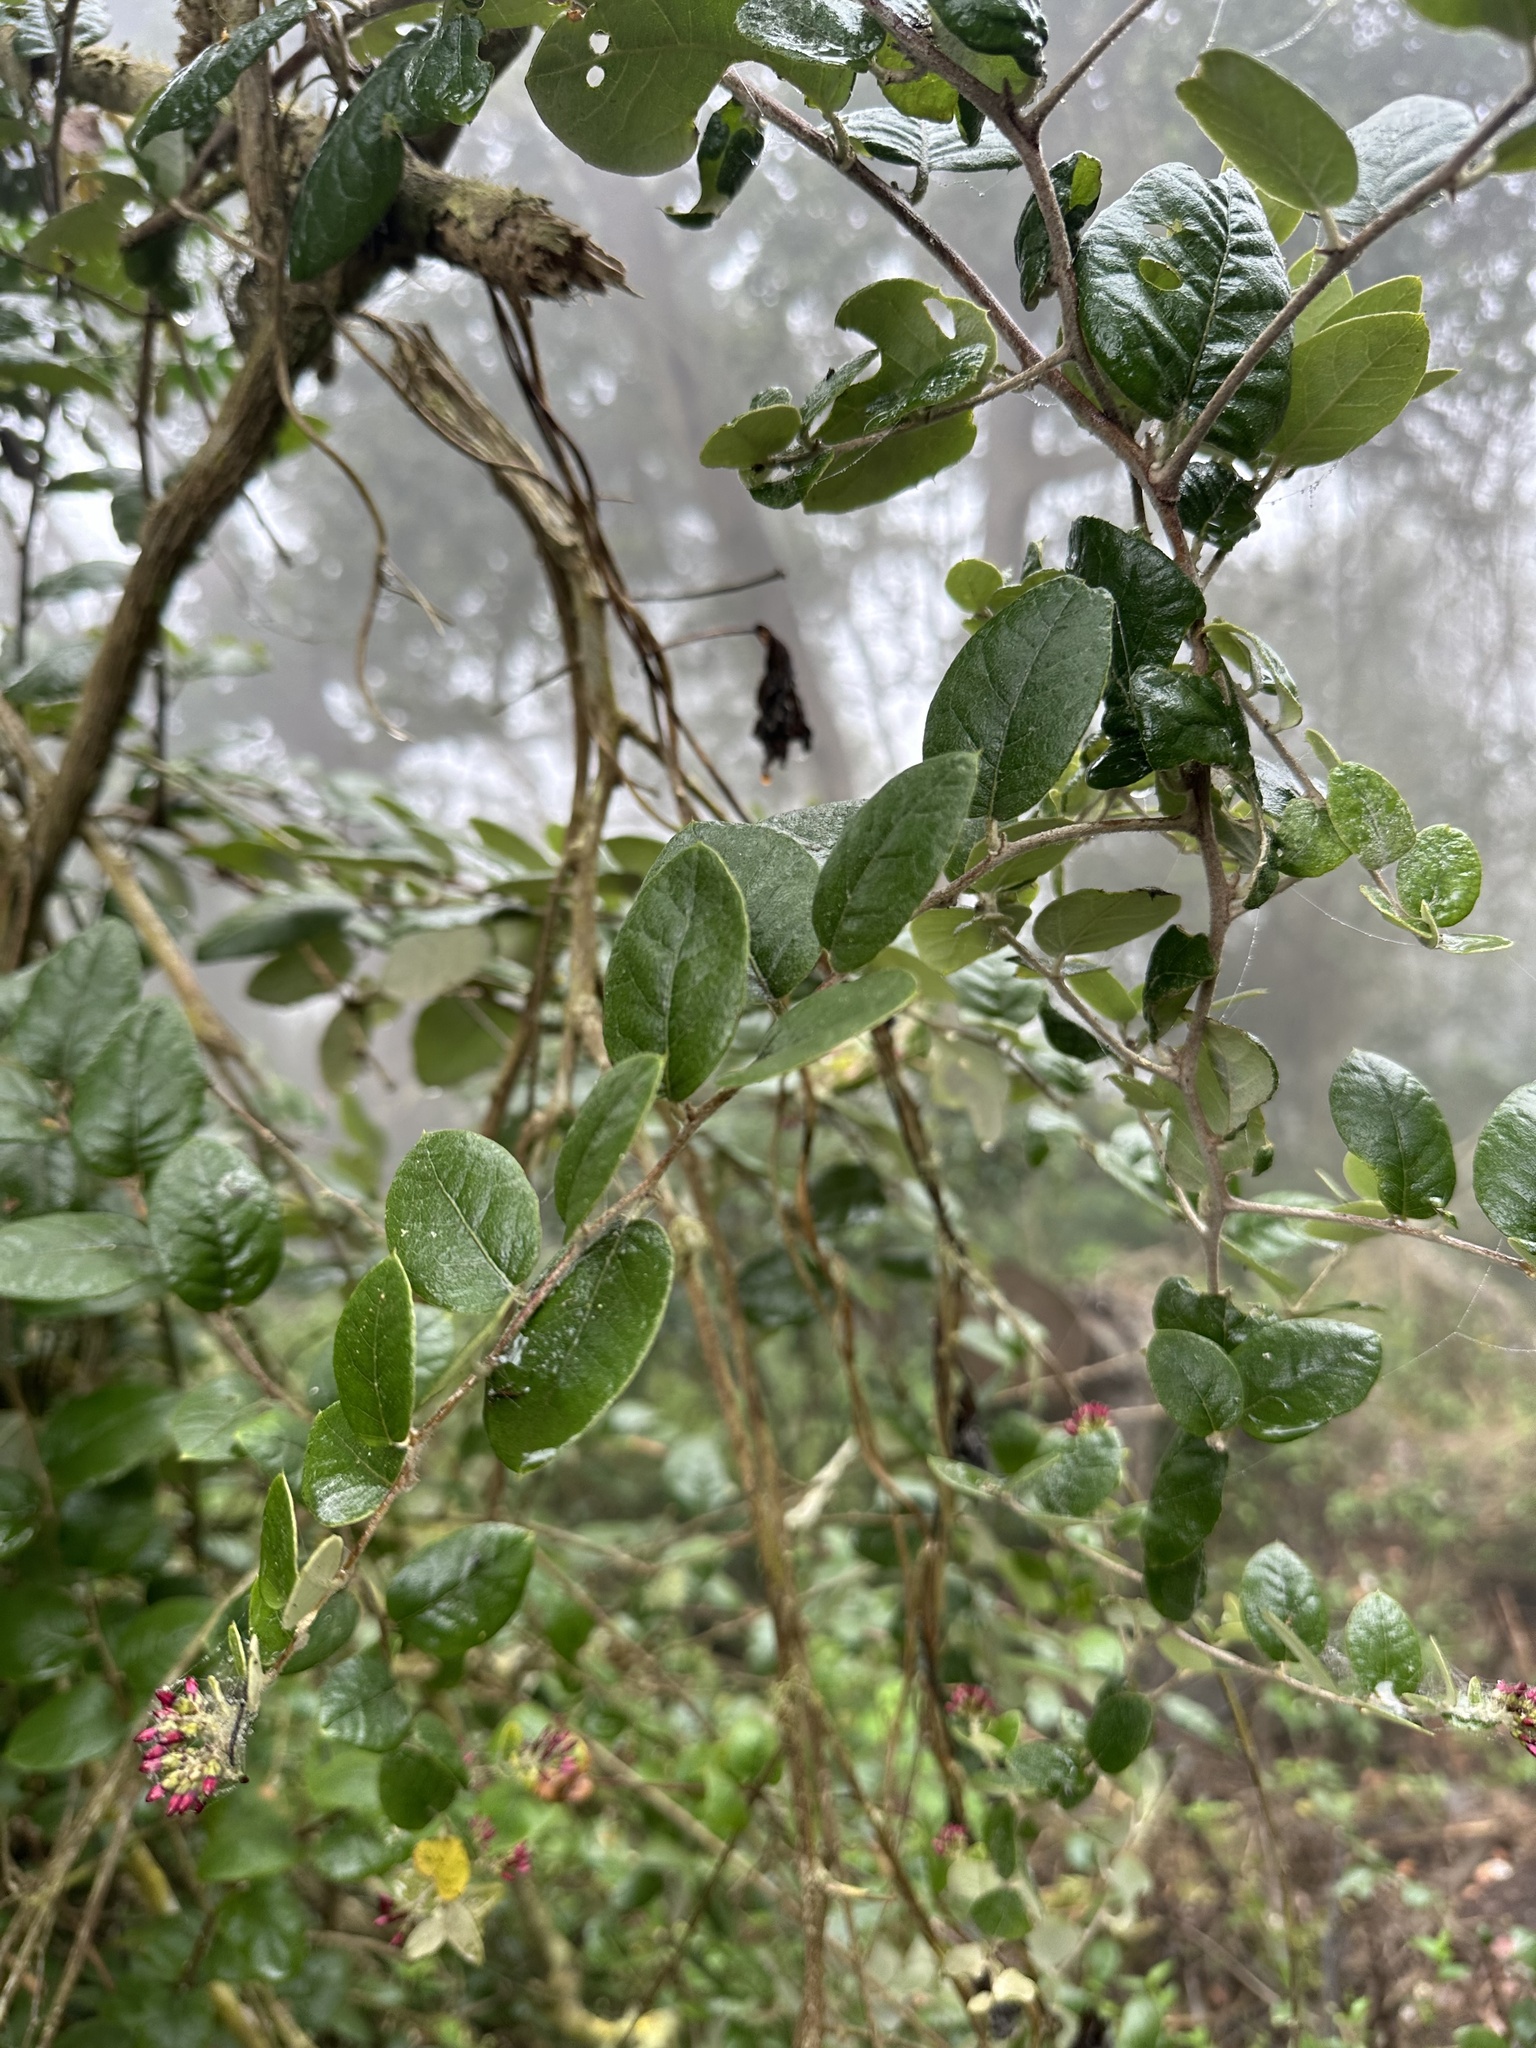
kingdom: Plantae
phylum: Tracheophyta
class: Magnoliopsida
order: Asterales
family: Asteraceae
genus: Proustia
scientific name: Proustia pyrifolia
